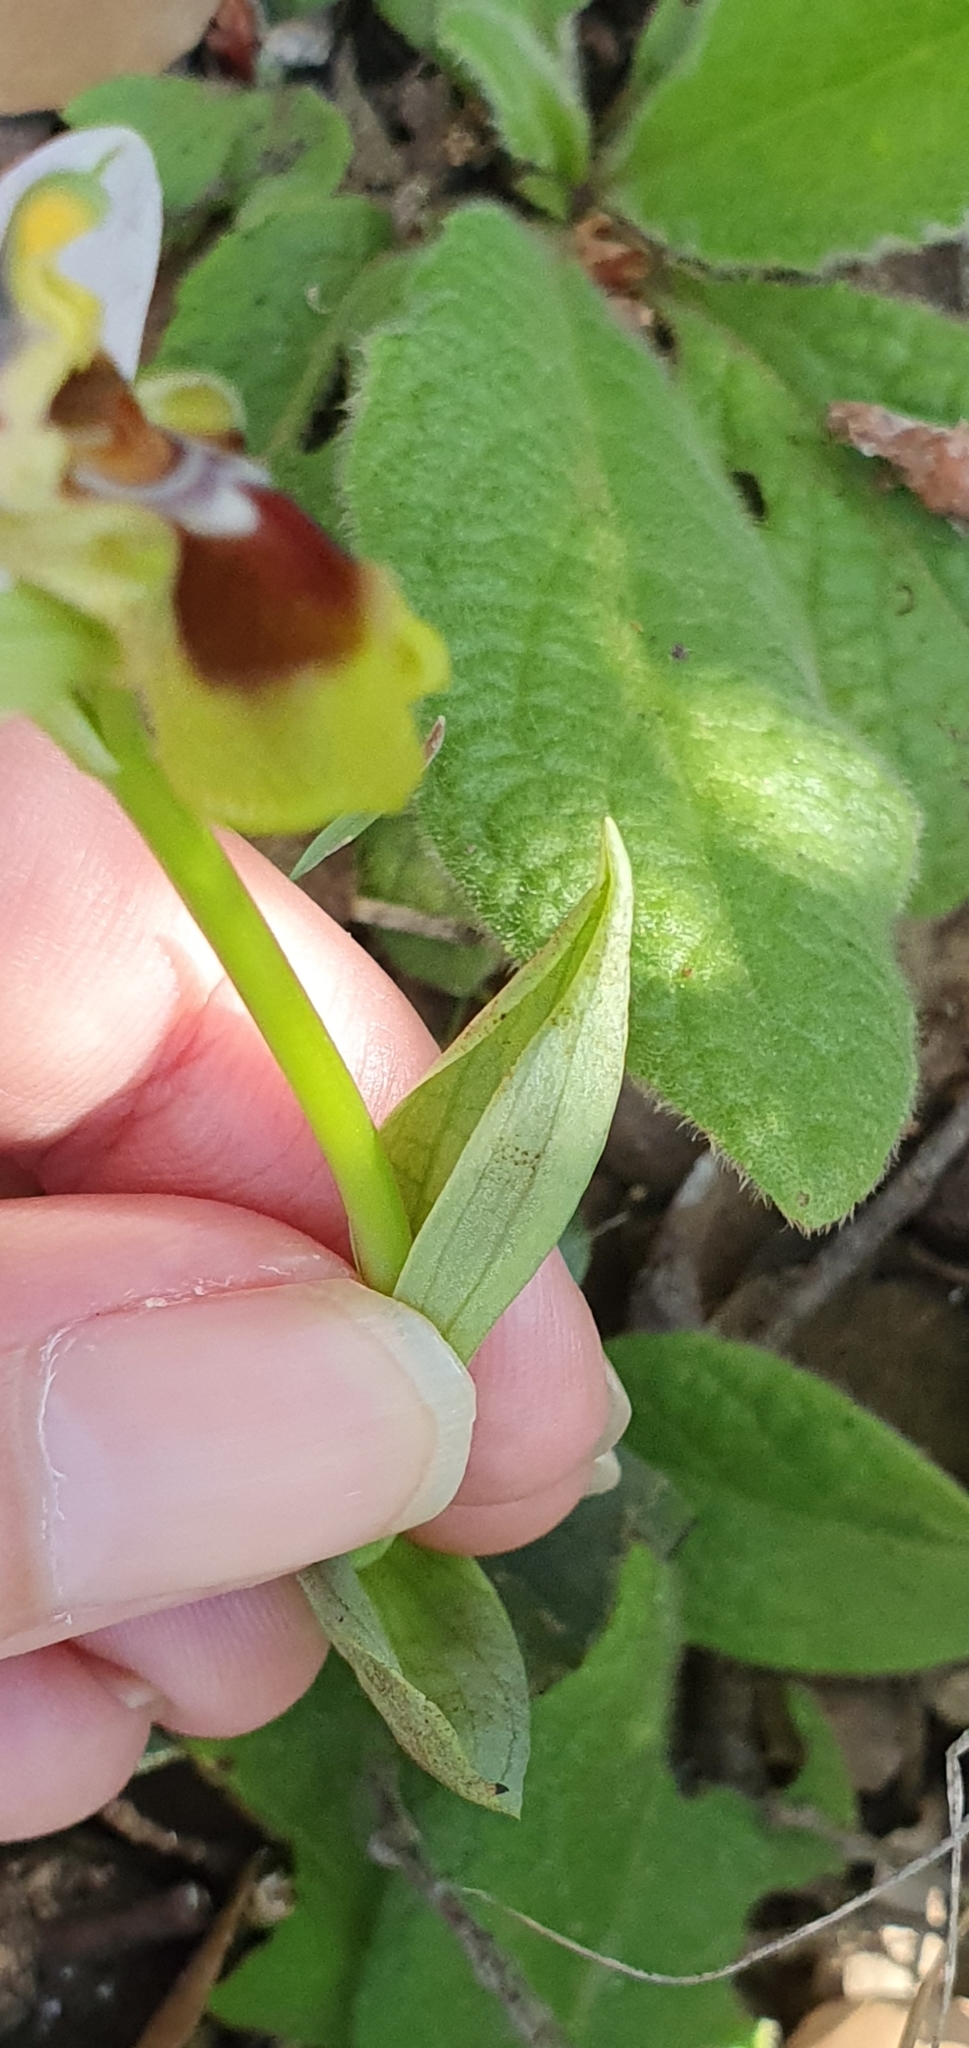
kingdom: Plantae
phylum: Tracheophyta
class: Liliopsida
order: Asparagales
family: Orchidaceae
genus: Ophrys
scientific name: Ophrys tenthredinifera
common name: Sawfly orchid
